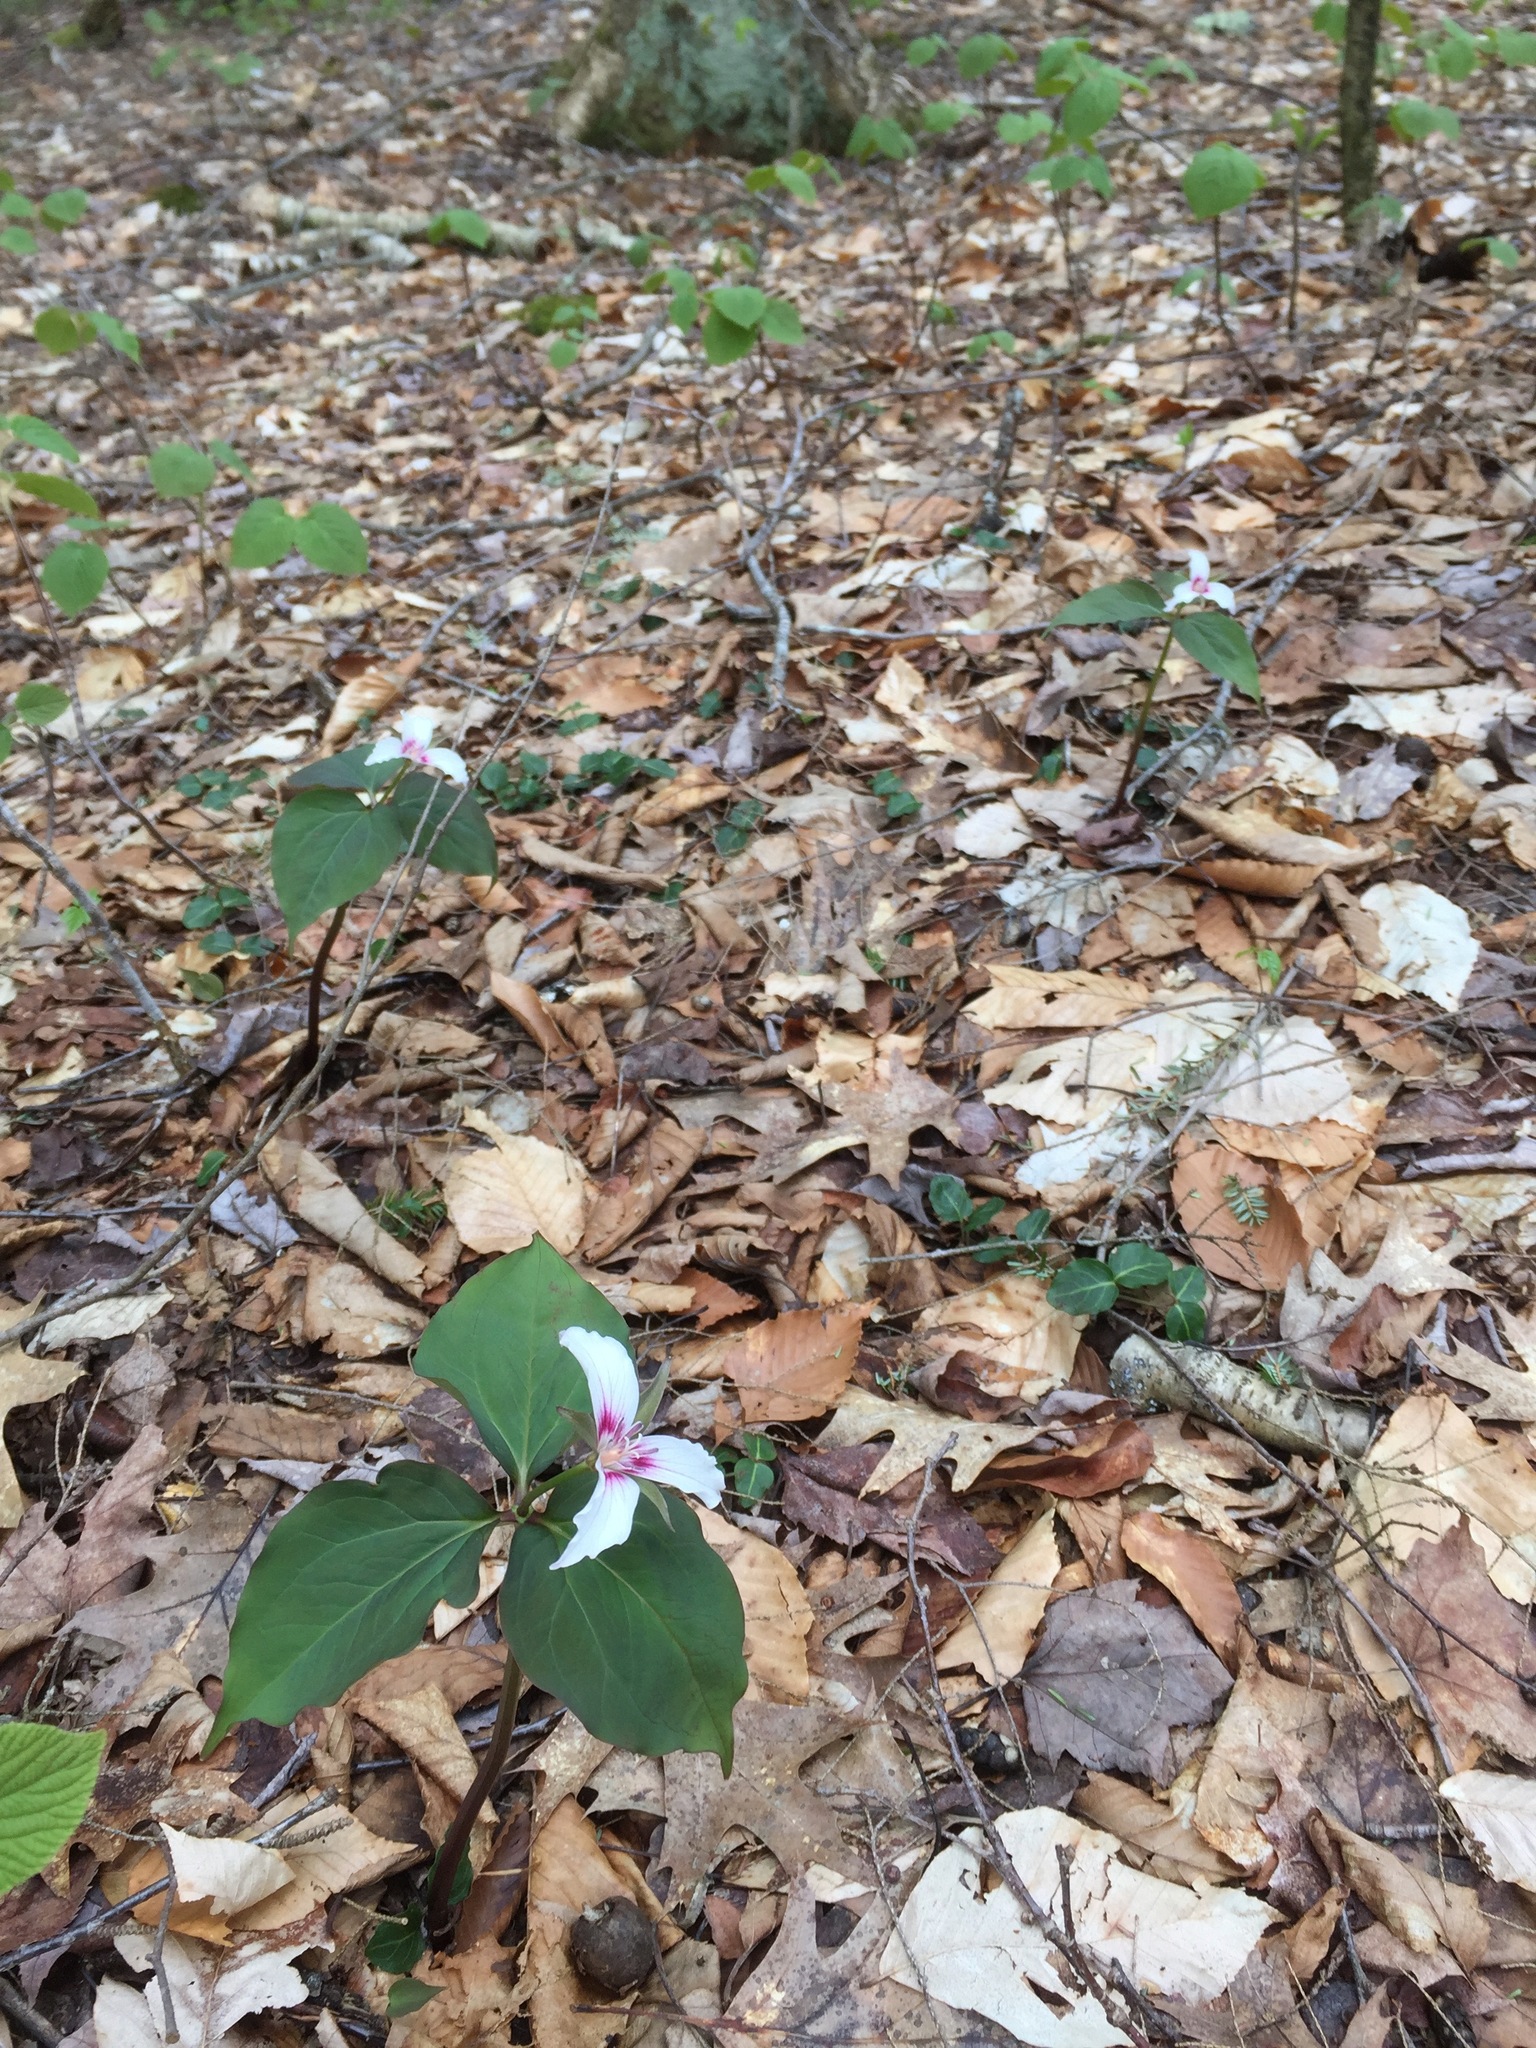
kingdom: Plantae
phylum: Tracheophyta
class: Liliopsida
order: Liliales
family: Melanthiaceae
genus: Trillium
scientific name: Trillium undulatum
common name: Paint trillium
